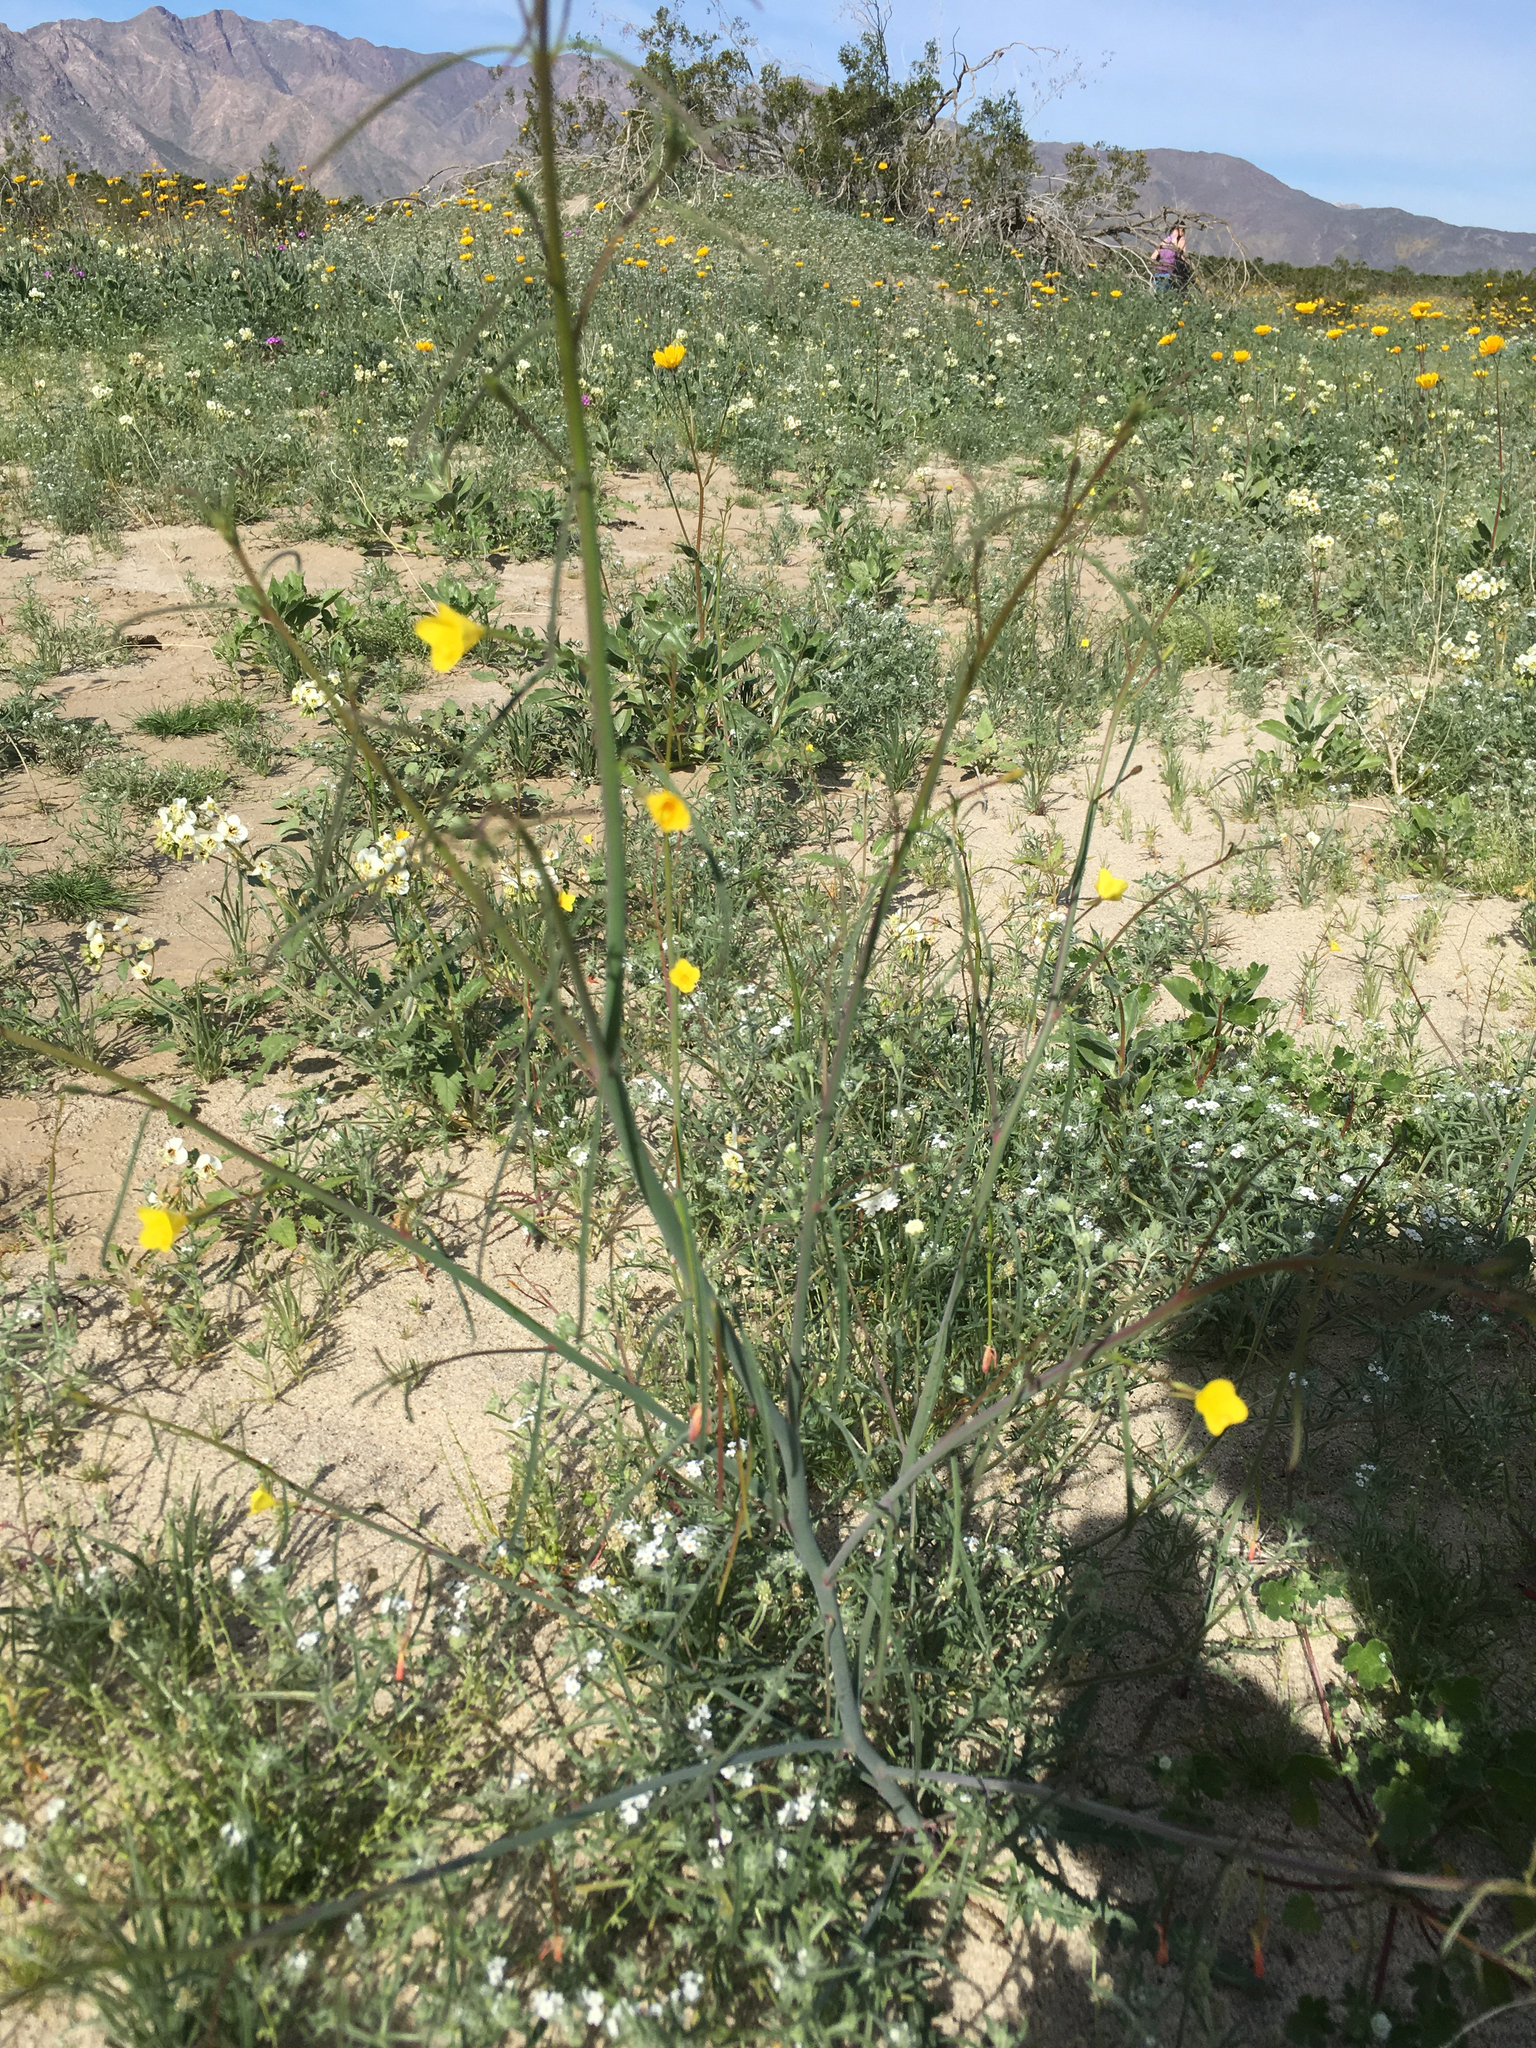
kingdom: Plantae
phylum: Tracheophyta
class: Magnoliopsida
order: Myrtales
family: Onagraceae
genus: Eulobus
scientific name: Eulobus californicus
